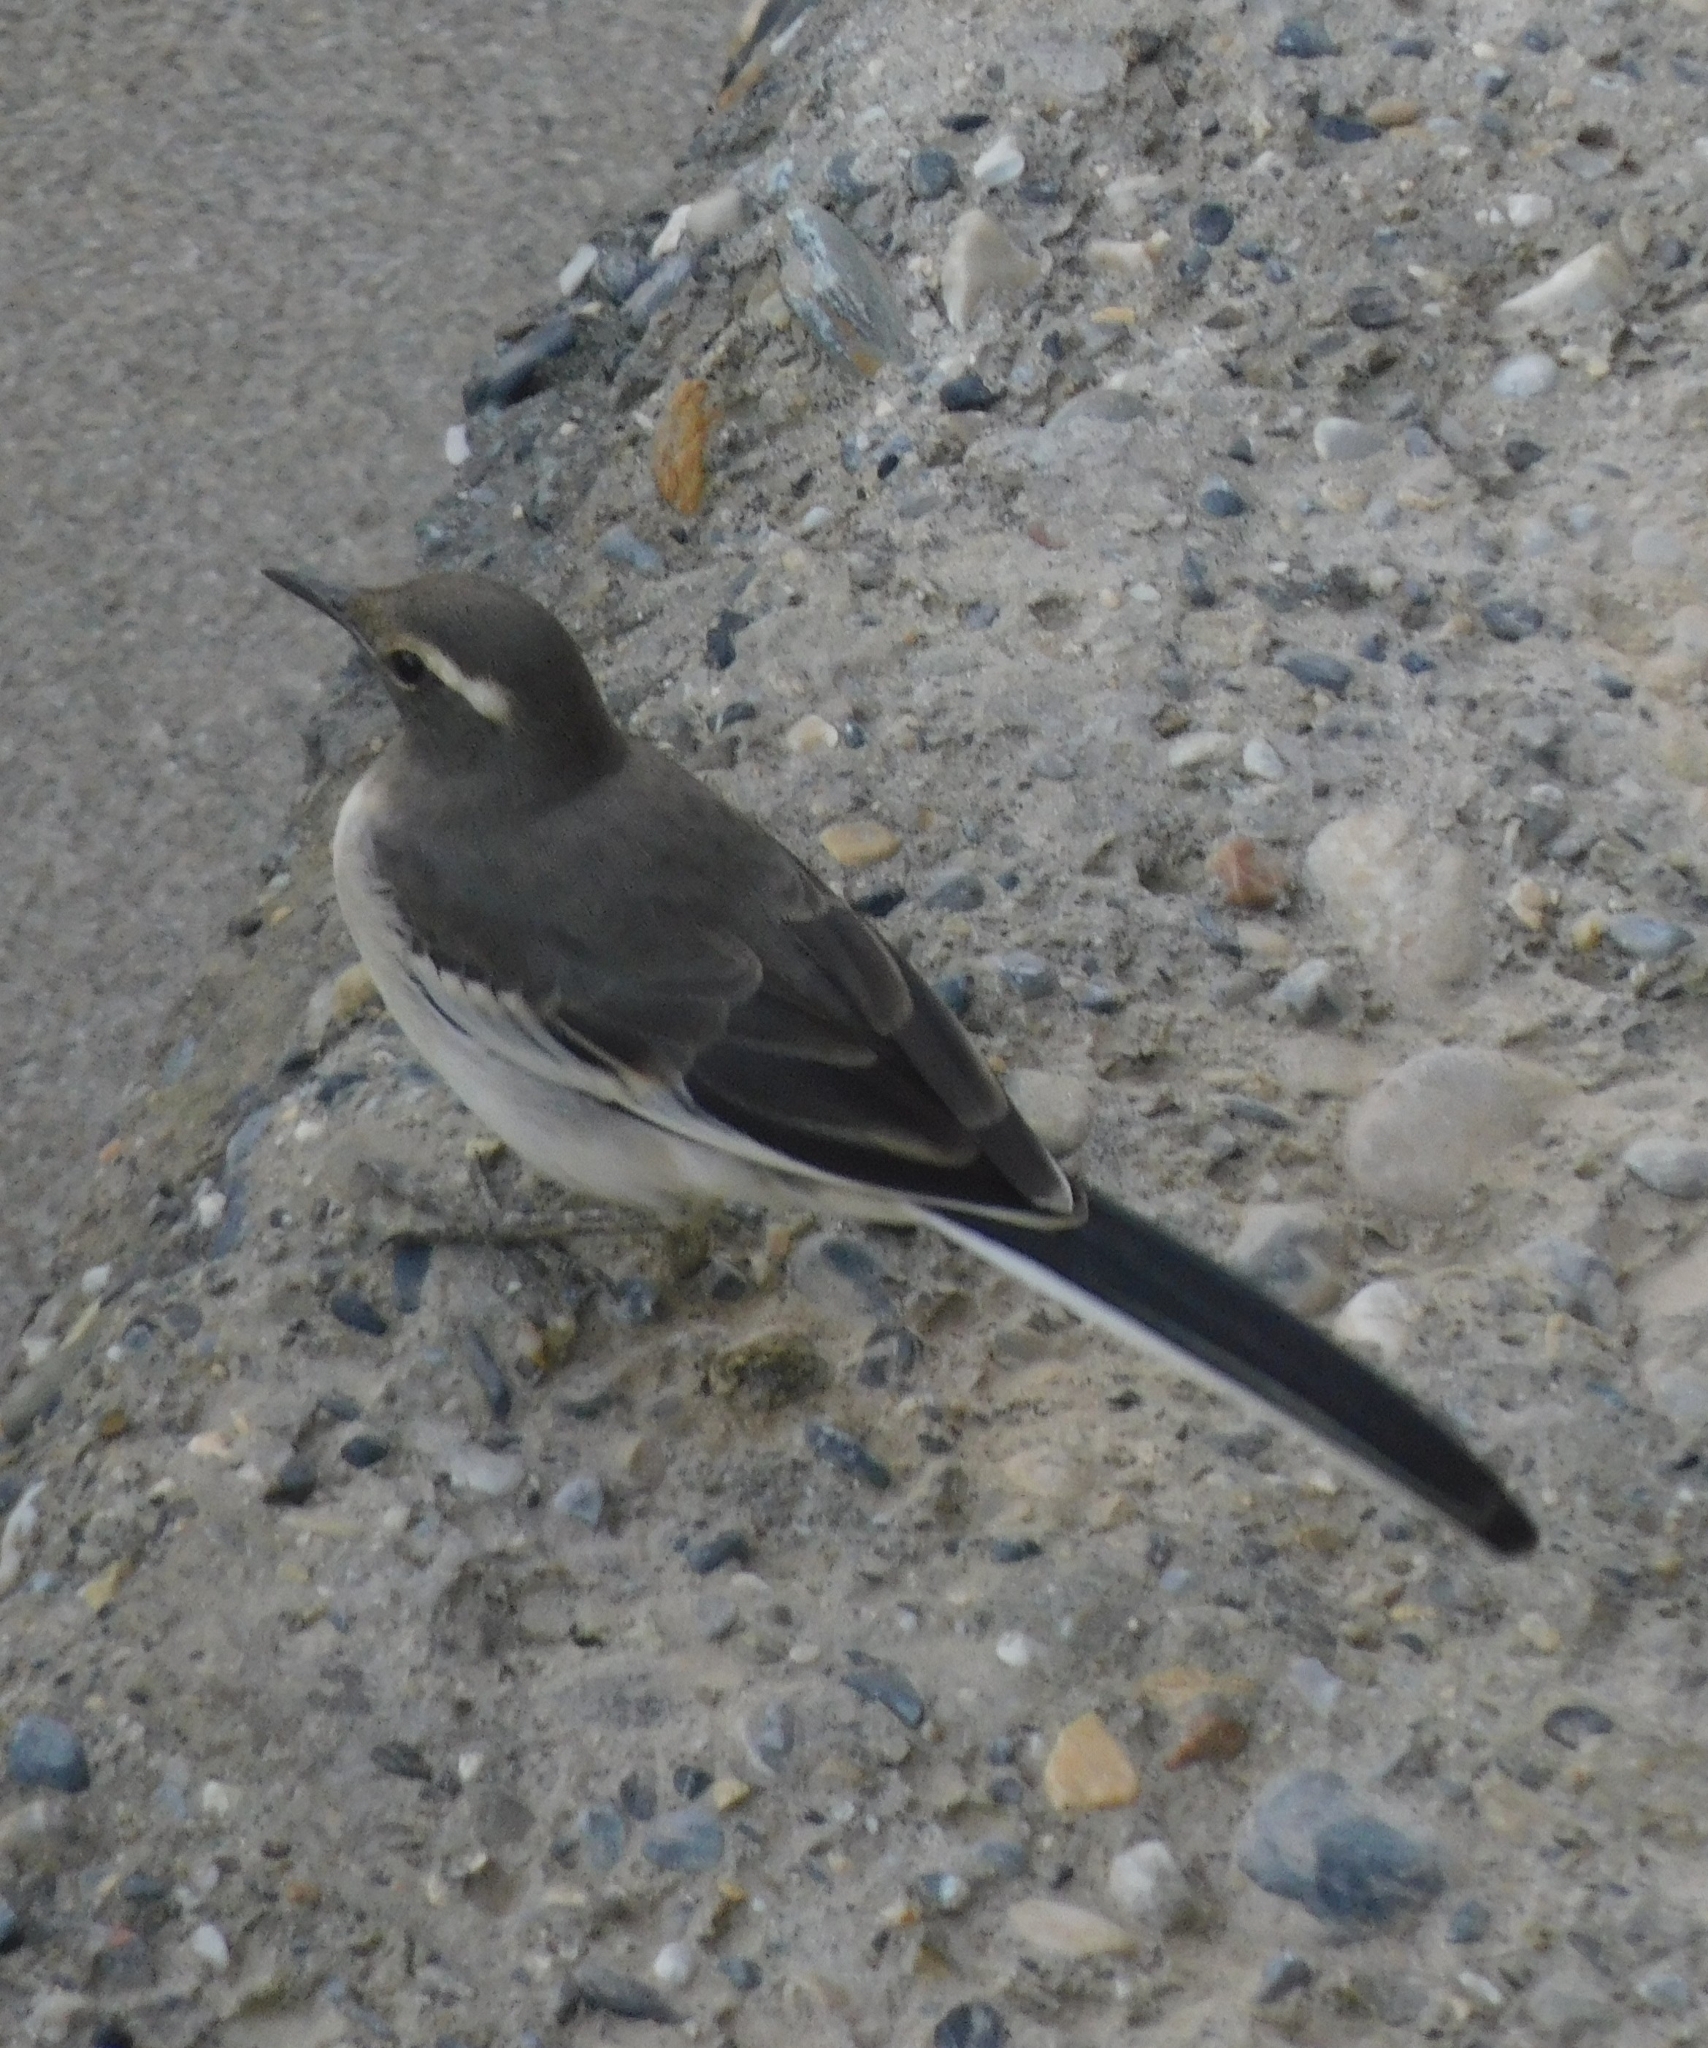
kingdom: Animalia
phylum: Chordata
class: Aves
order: Passeriformes
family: Motacillidae
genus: Motacilla
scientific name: Motacilla maderaspatensis
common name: White-browed wagtail
